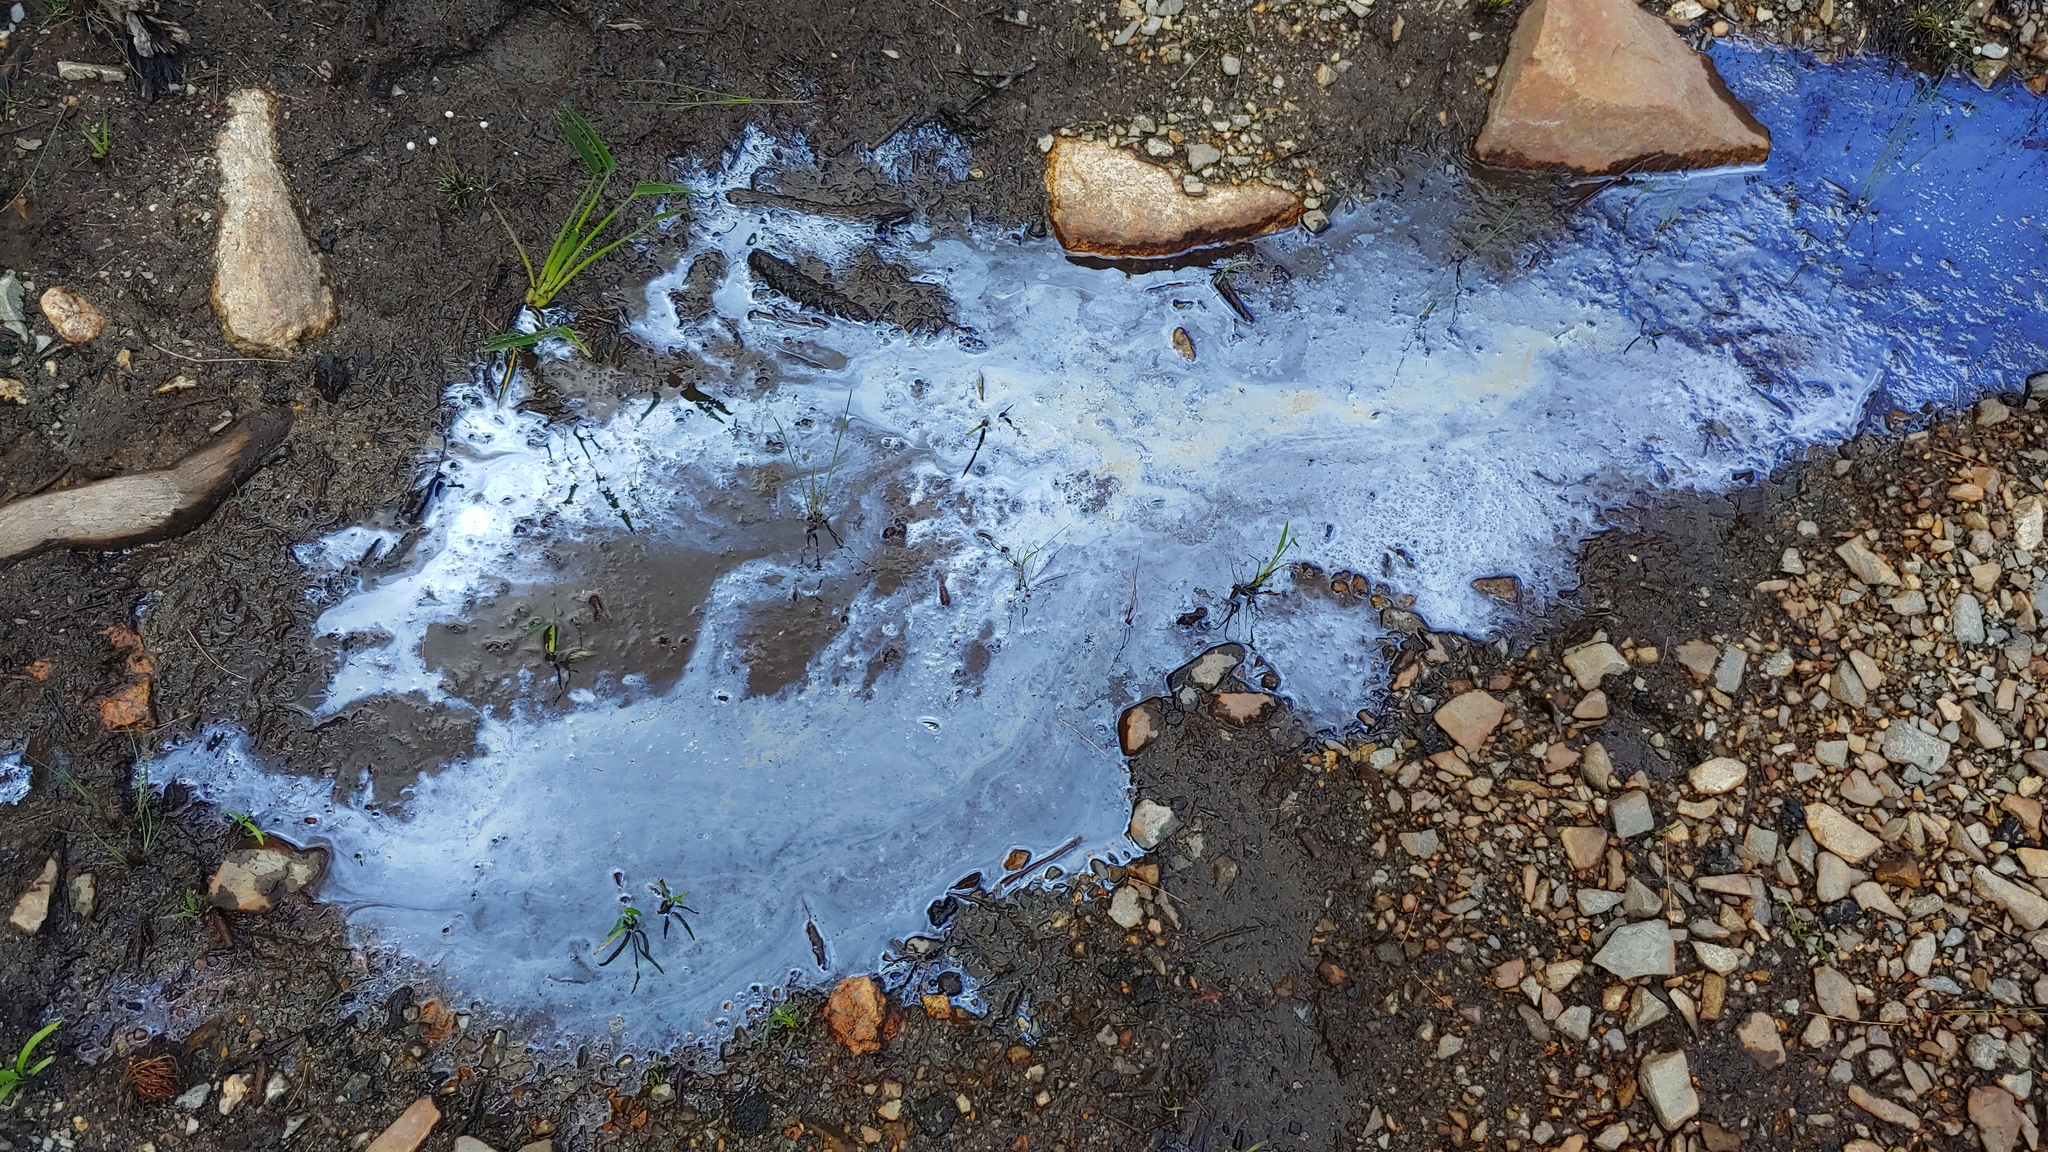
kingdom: Bacteria
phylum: Proteobacteria
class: Gammaproteobacteria
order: Burkholderiales
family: Burkholderiaceae
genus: Leptothrix
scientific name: Leptothrix discophora
